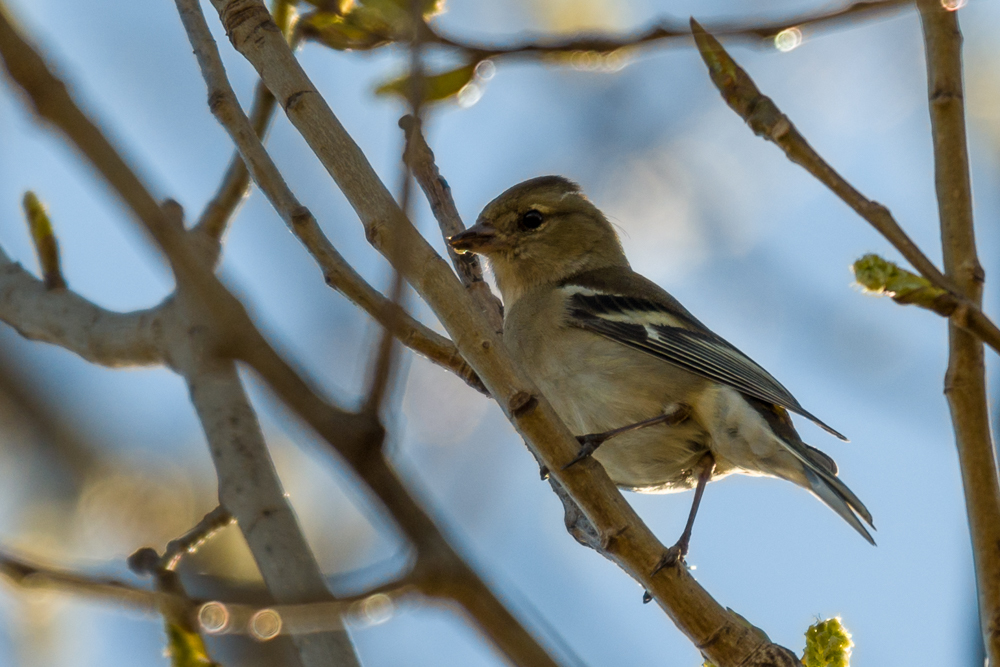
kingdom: Animalia
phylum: Chordata
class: Aves
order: Passeriformes
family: Fringillidae
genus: Fringilla
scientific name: Fringilla coelebs
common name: Common chaffinch
